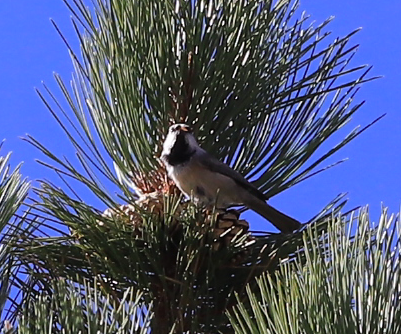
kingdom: Animalia
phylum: Chordata
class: Aves
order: Passeriformes
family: Paridae
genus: Poecile
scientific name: Poecile gambeli
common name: Mountain chickadee
